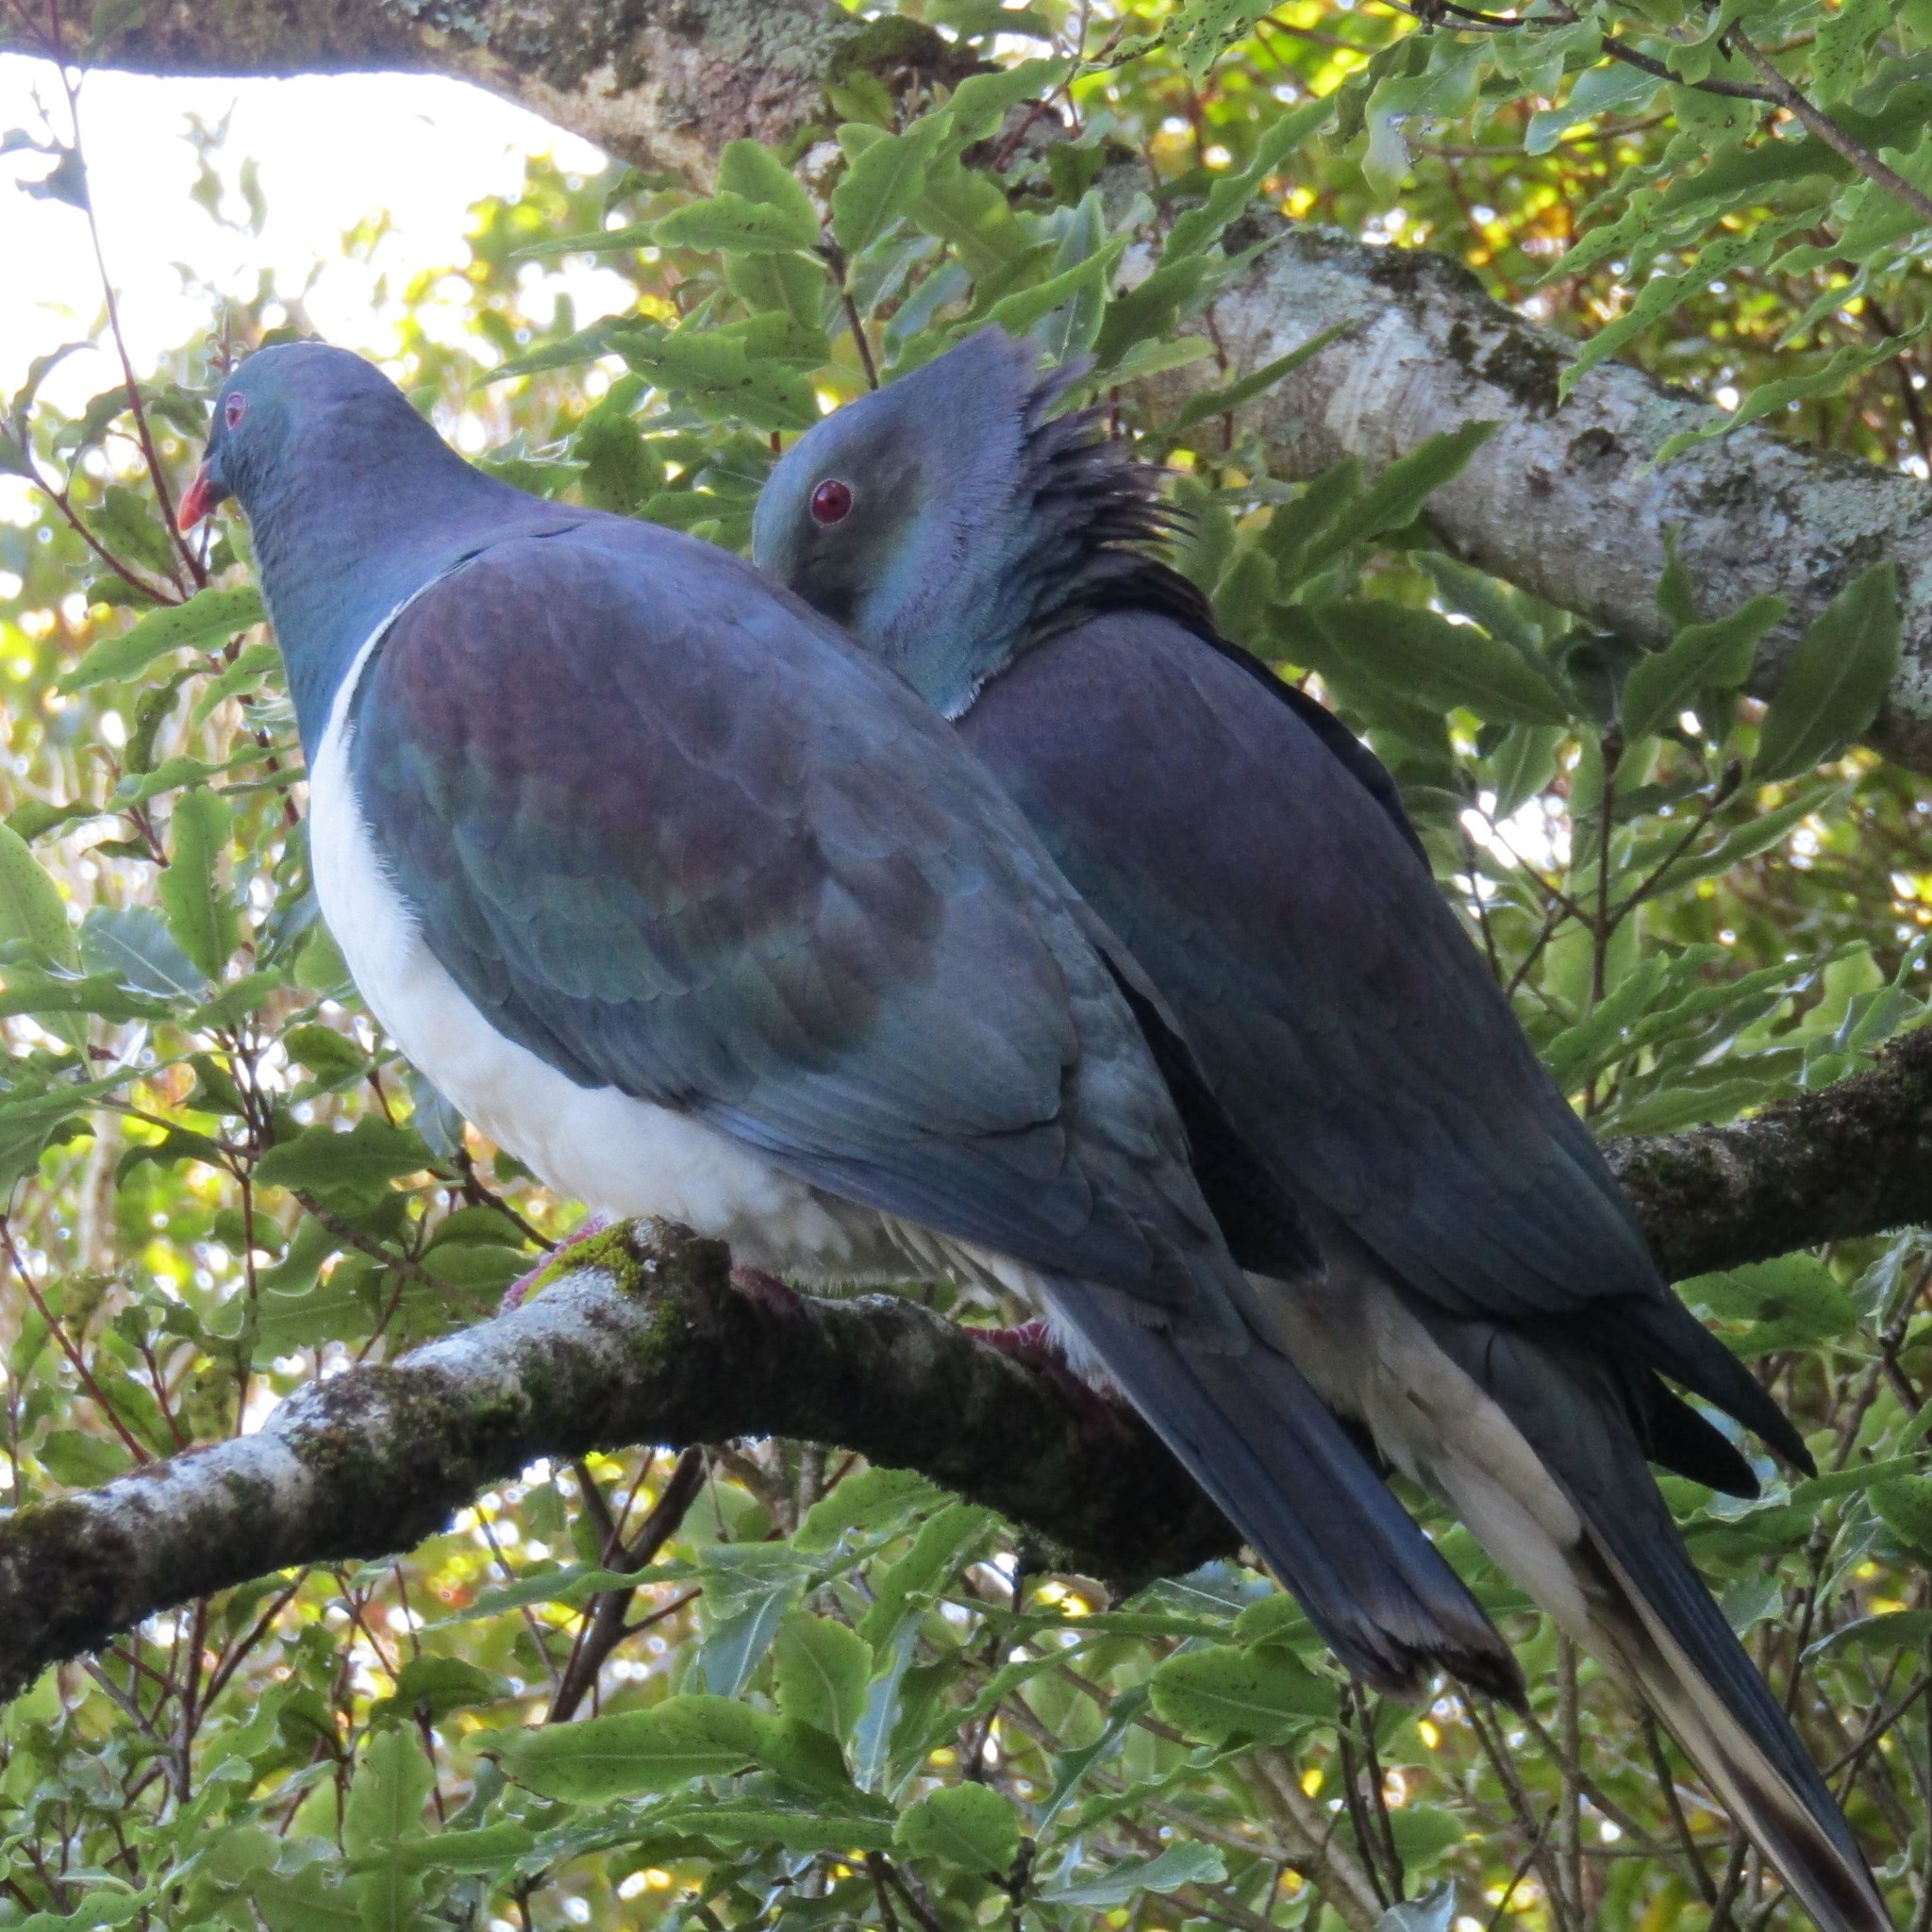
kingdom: Animalia
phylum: Chordata
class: Aves
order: Columbiformes
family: Columbidae
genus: Hemiphaga
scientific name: Hemiphaga novaeseelandiae
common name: New zealand pigeon
